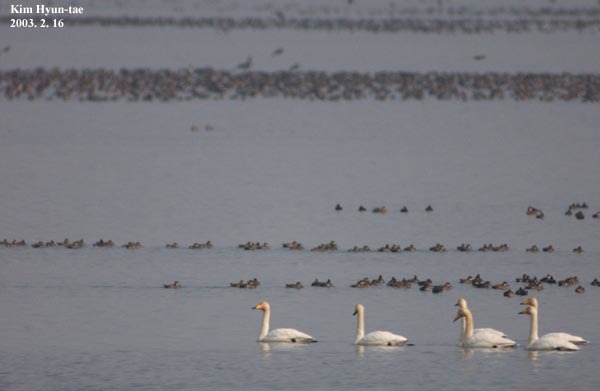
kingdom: Animalia
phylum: Chordata
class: Aves
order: Anseriformes
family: Anatidae
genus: Cygnus
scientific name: Cygnus cygnus
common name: Whooper swan
